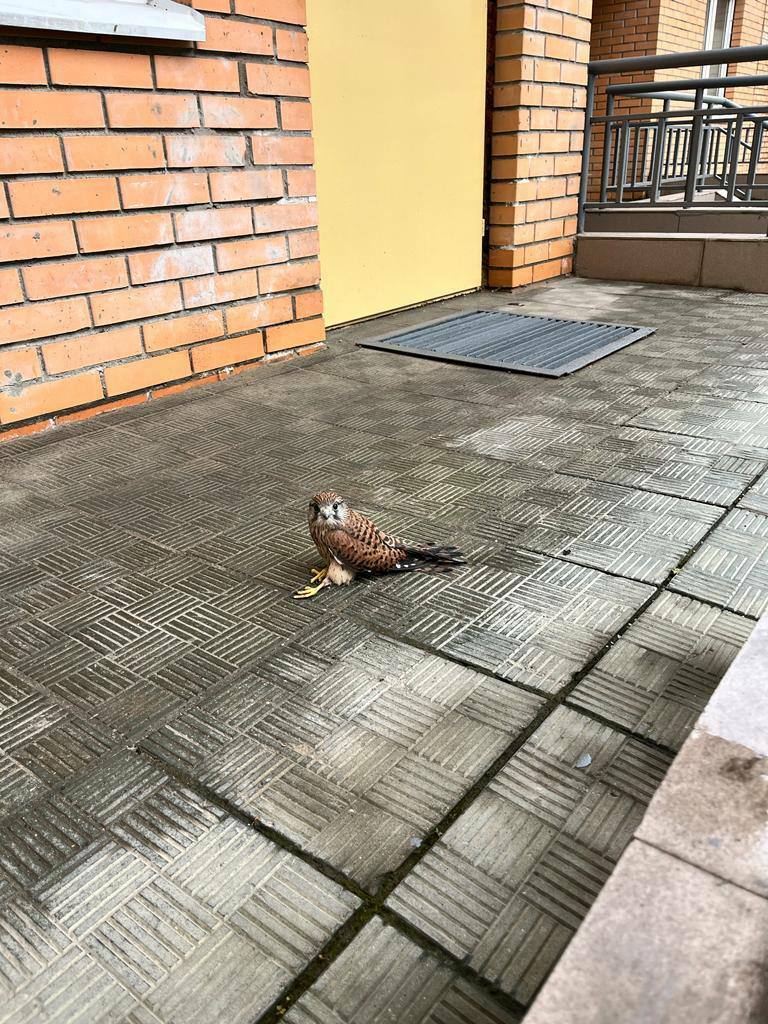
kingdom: Animalia
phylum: Chordata
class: Aves
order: Falconiformes
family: Falconidae
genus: Falco
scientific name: Falco tinnunculus
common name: Common kestrel
